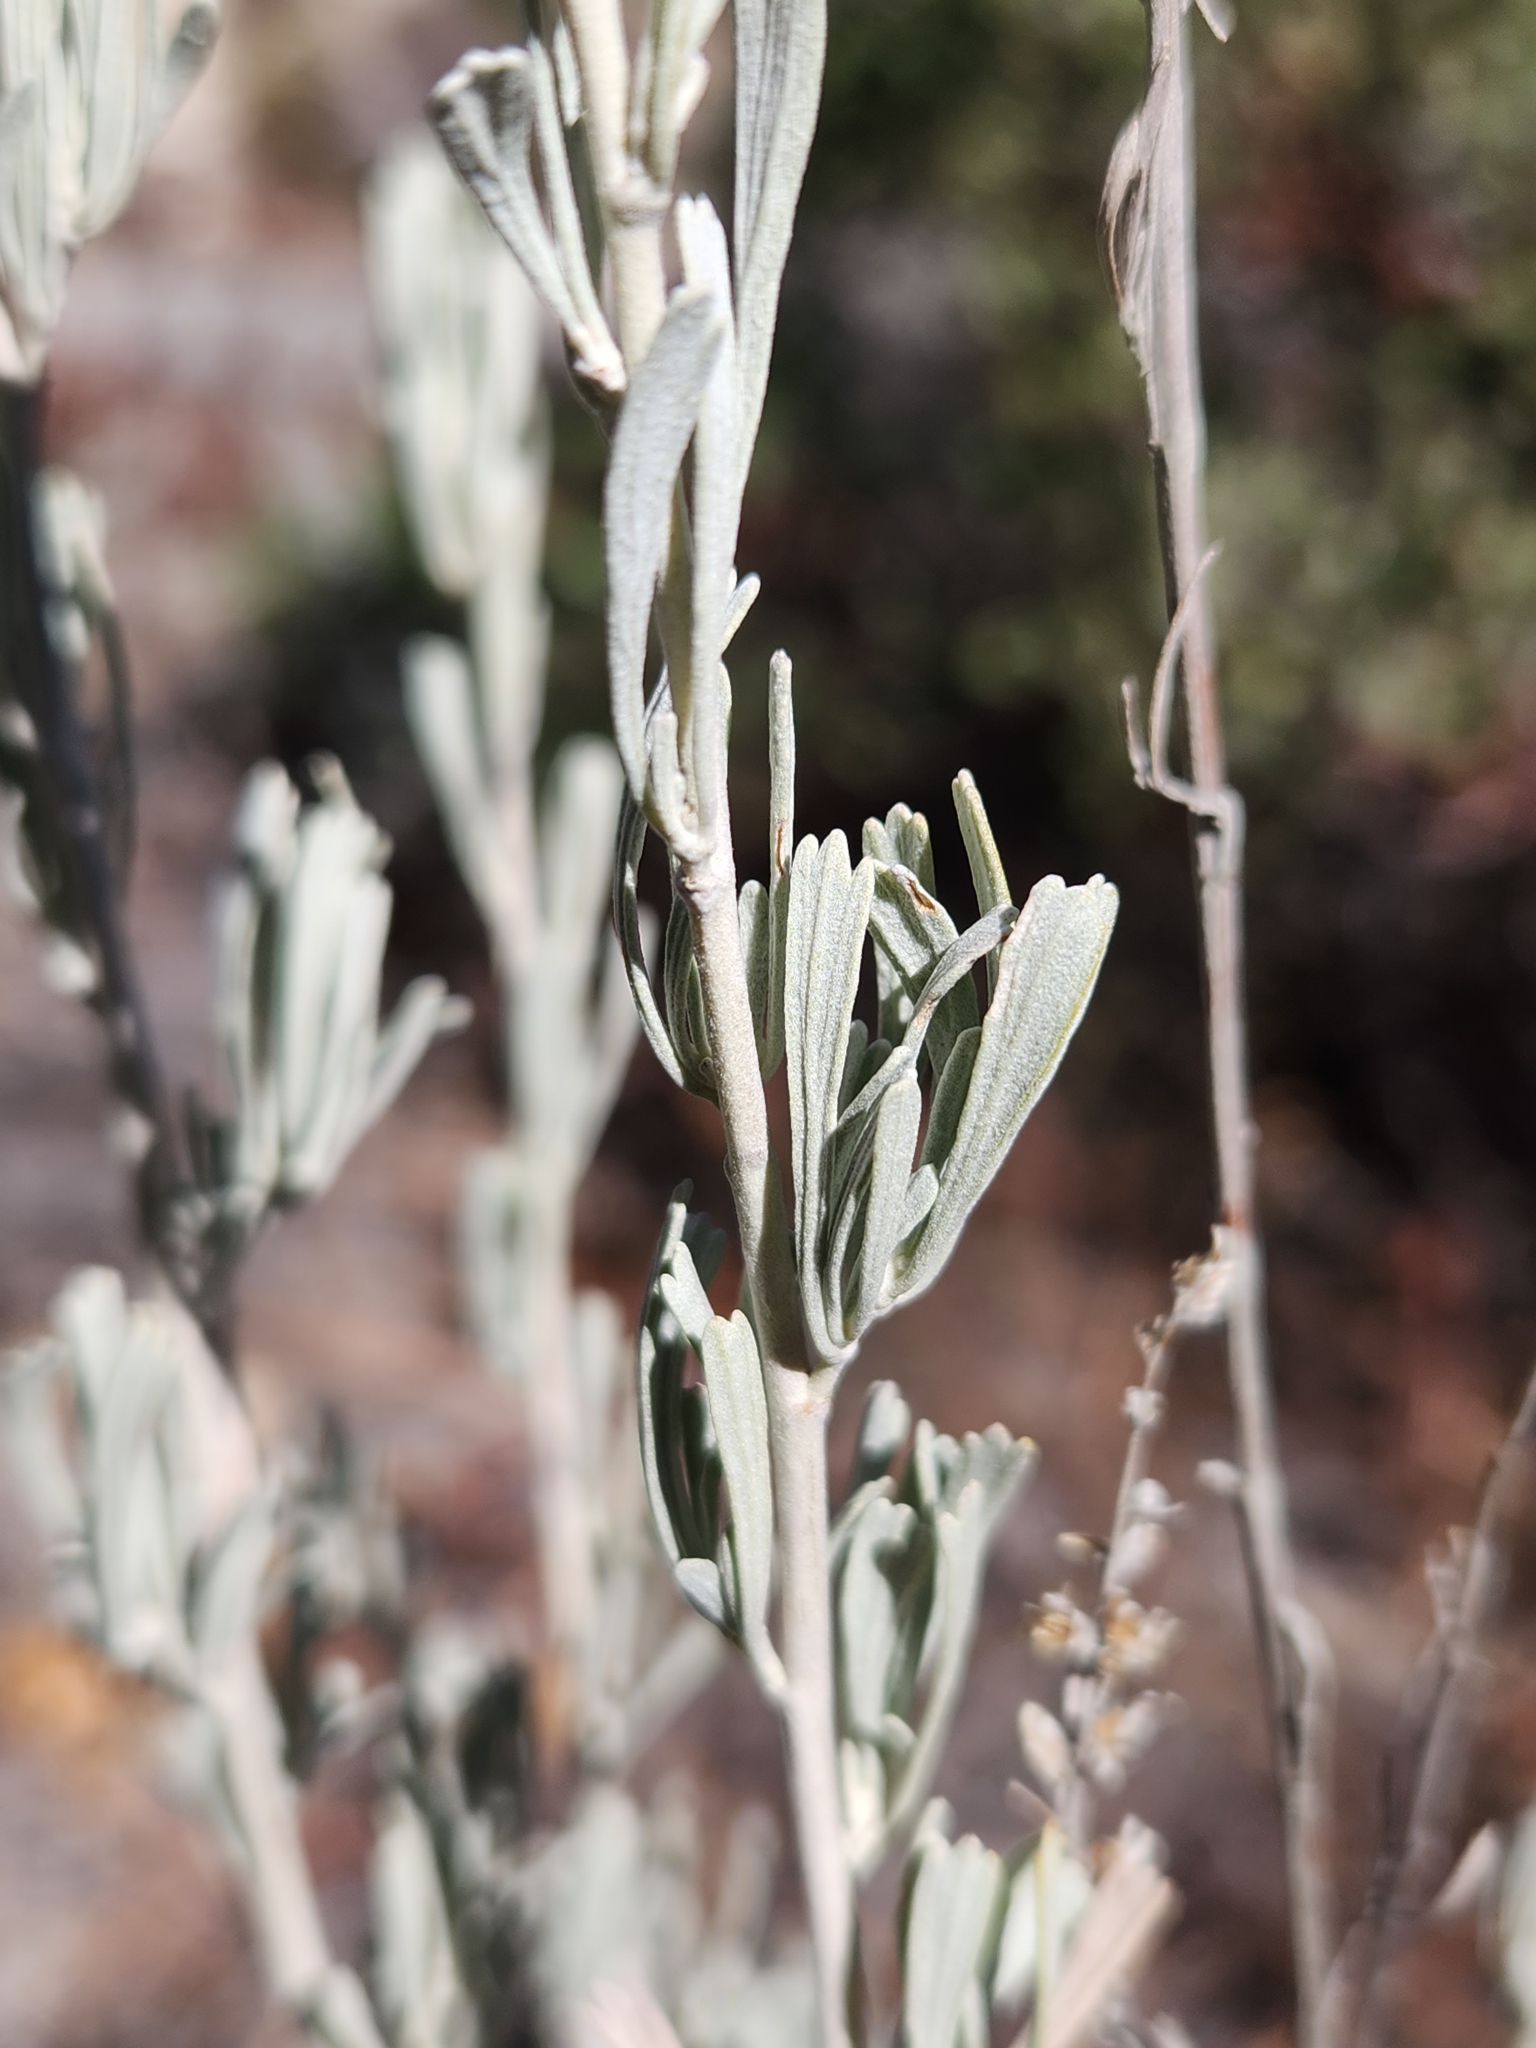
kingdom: Plantae
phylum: Tracheophyta
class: Magnoliopsida
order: Asterales
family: Asteraceae
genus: Artemisia
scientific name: Artemisia tridentata
